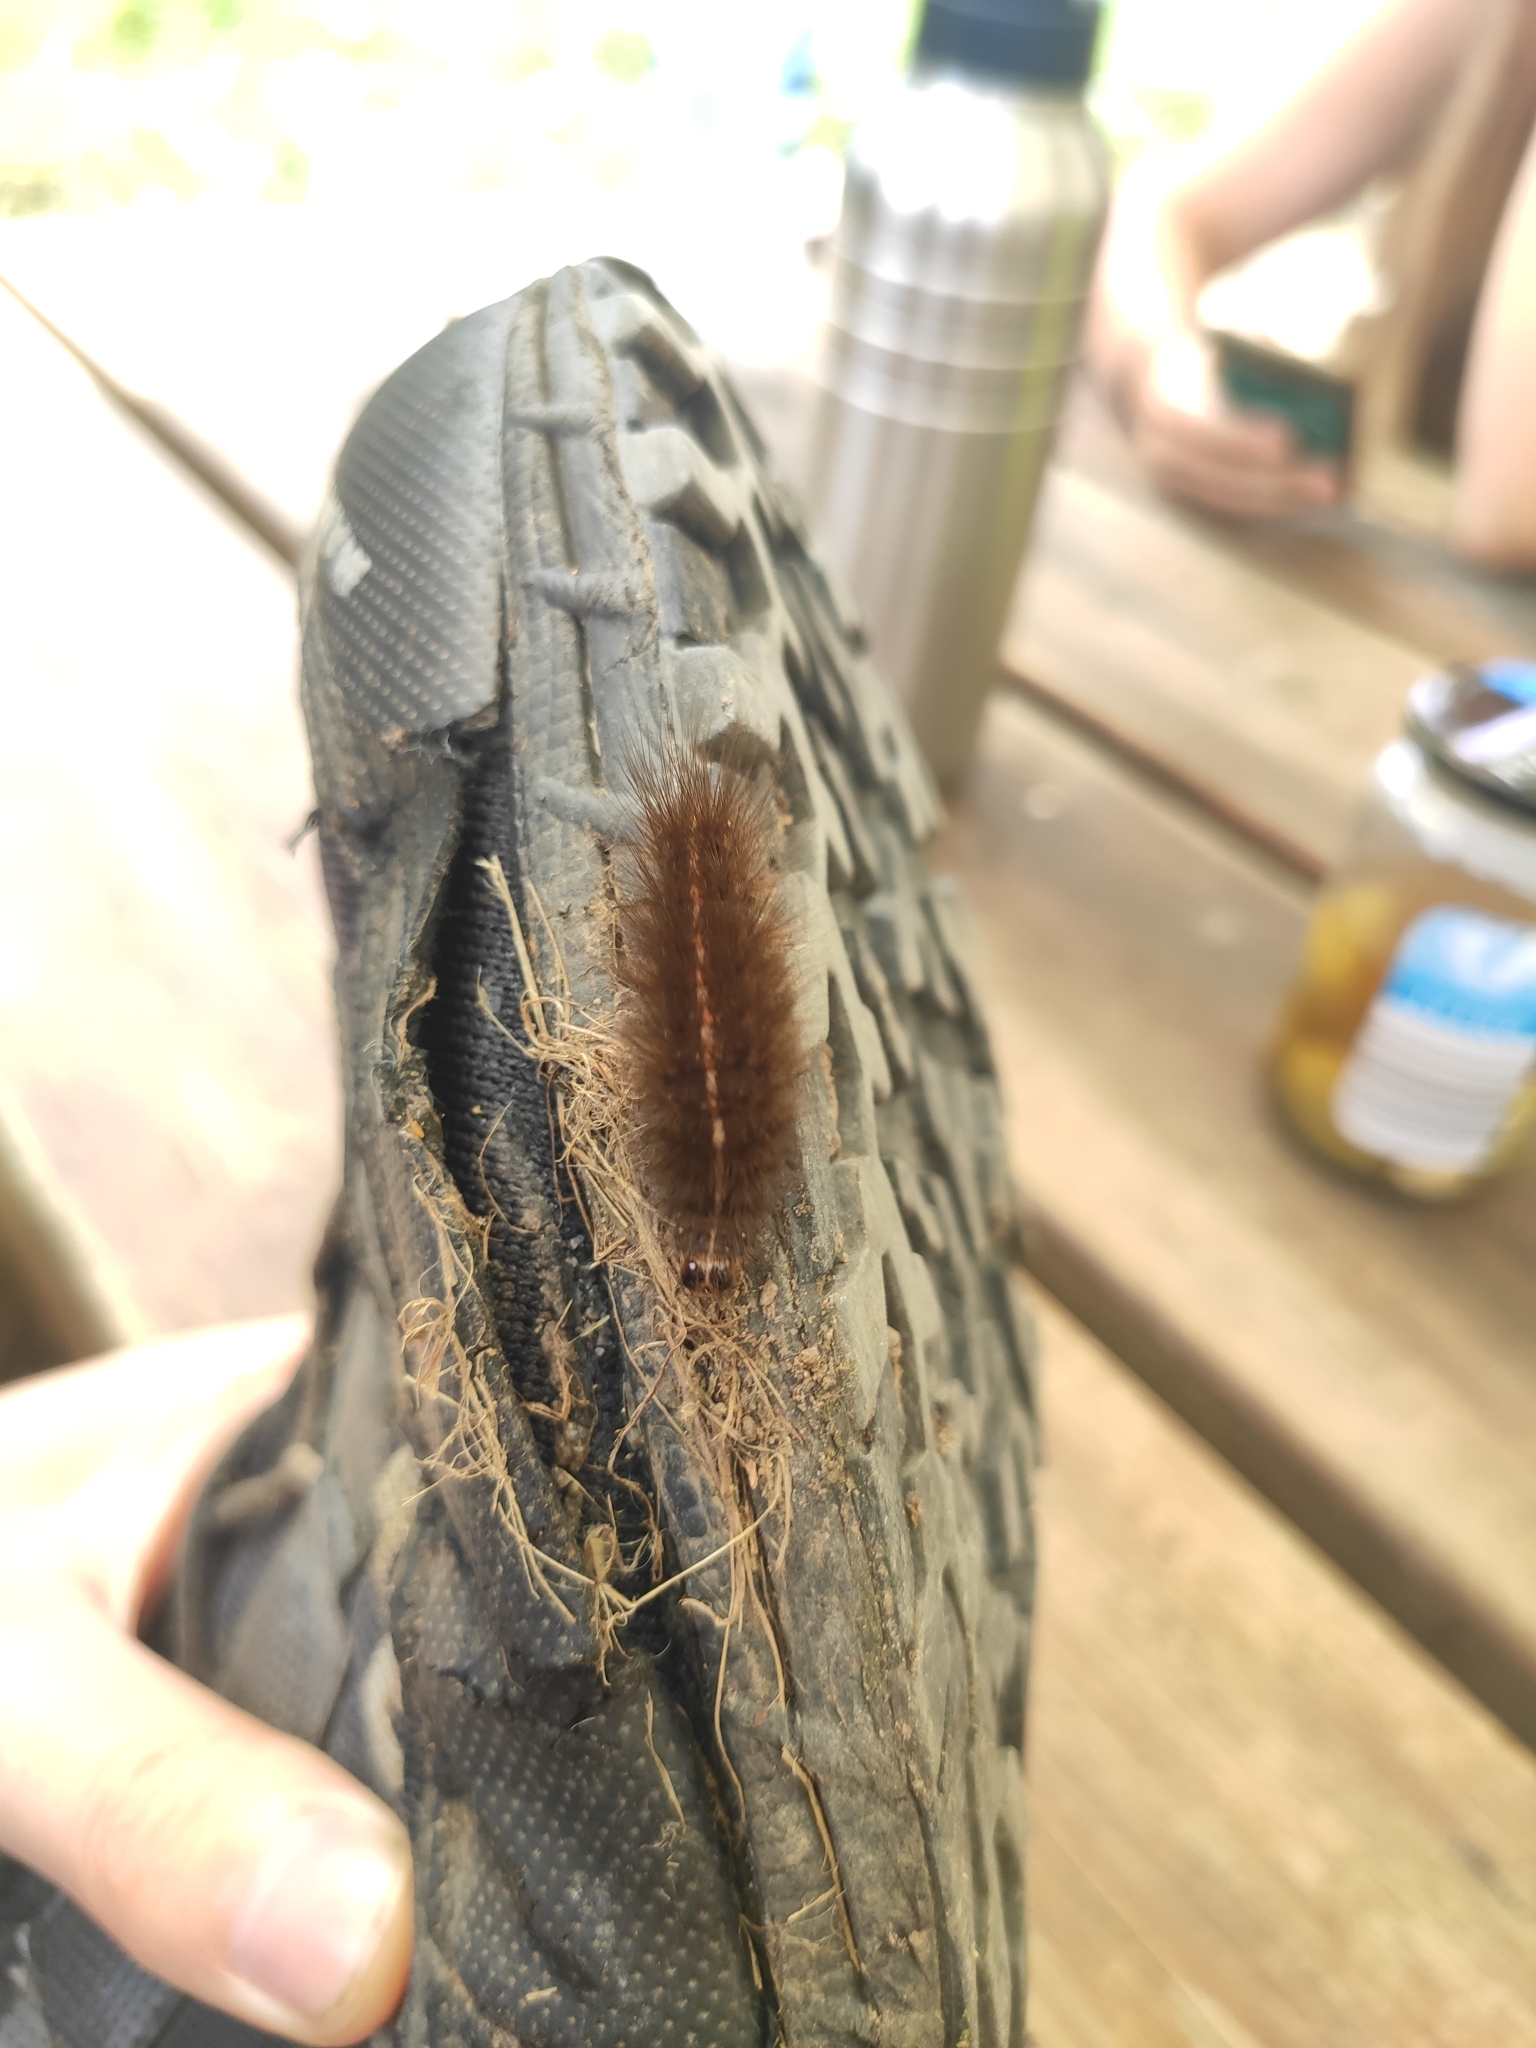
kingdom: Animalia
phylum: Arthropoda
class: Insecta
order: Lepidoptera
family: Erebidae
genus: Spilosoma
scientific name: Spilosoma lubricipeda
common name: White ermine
